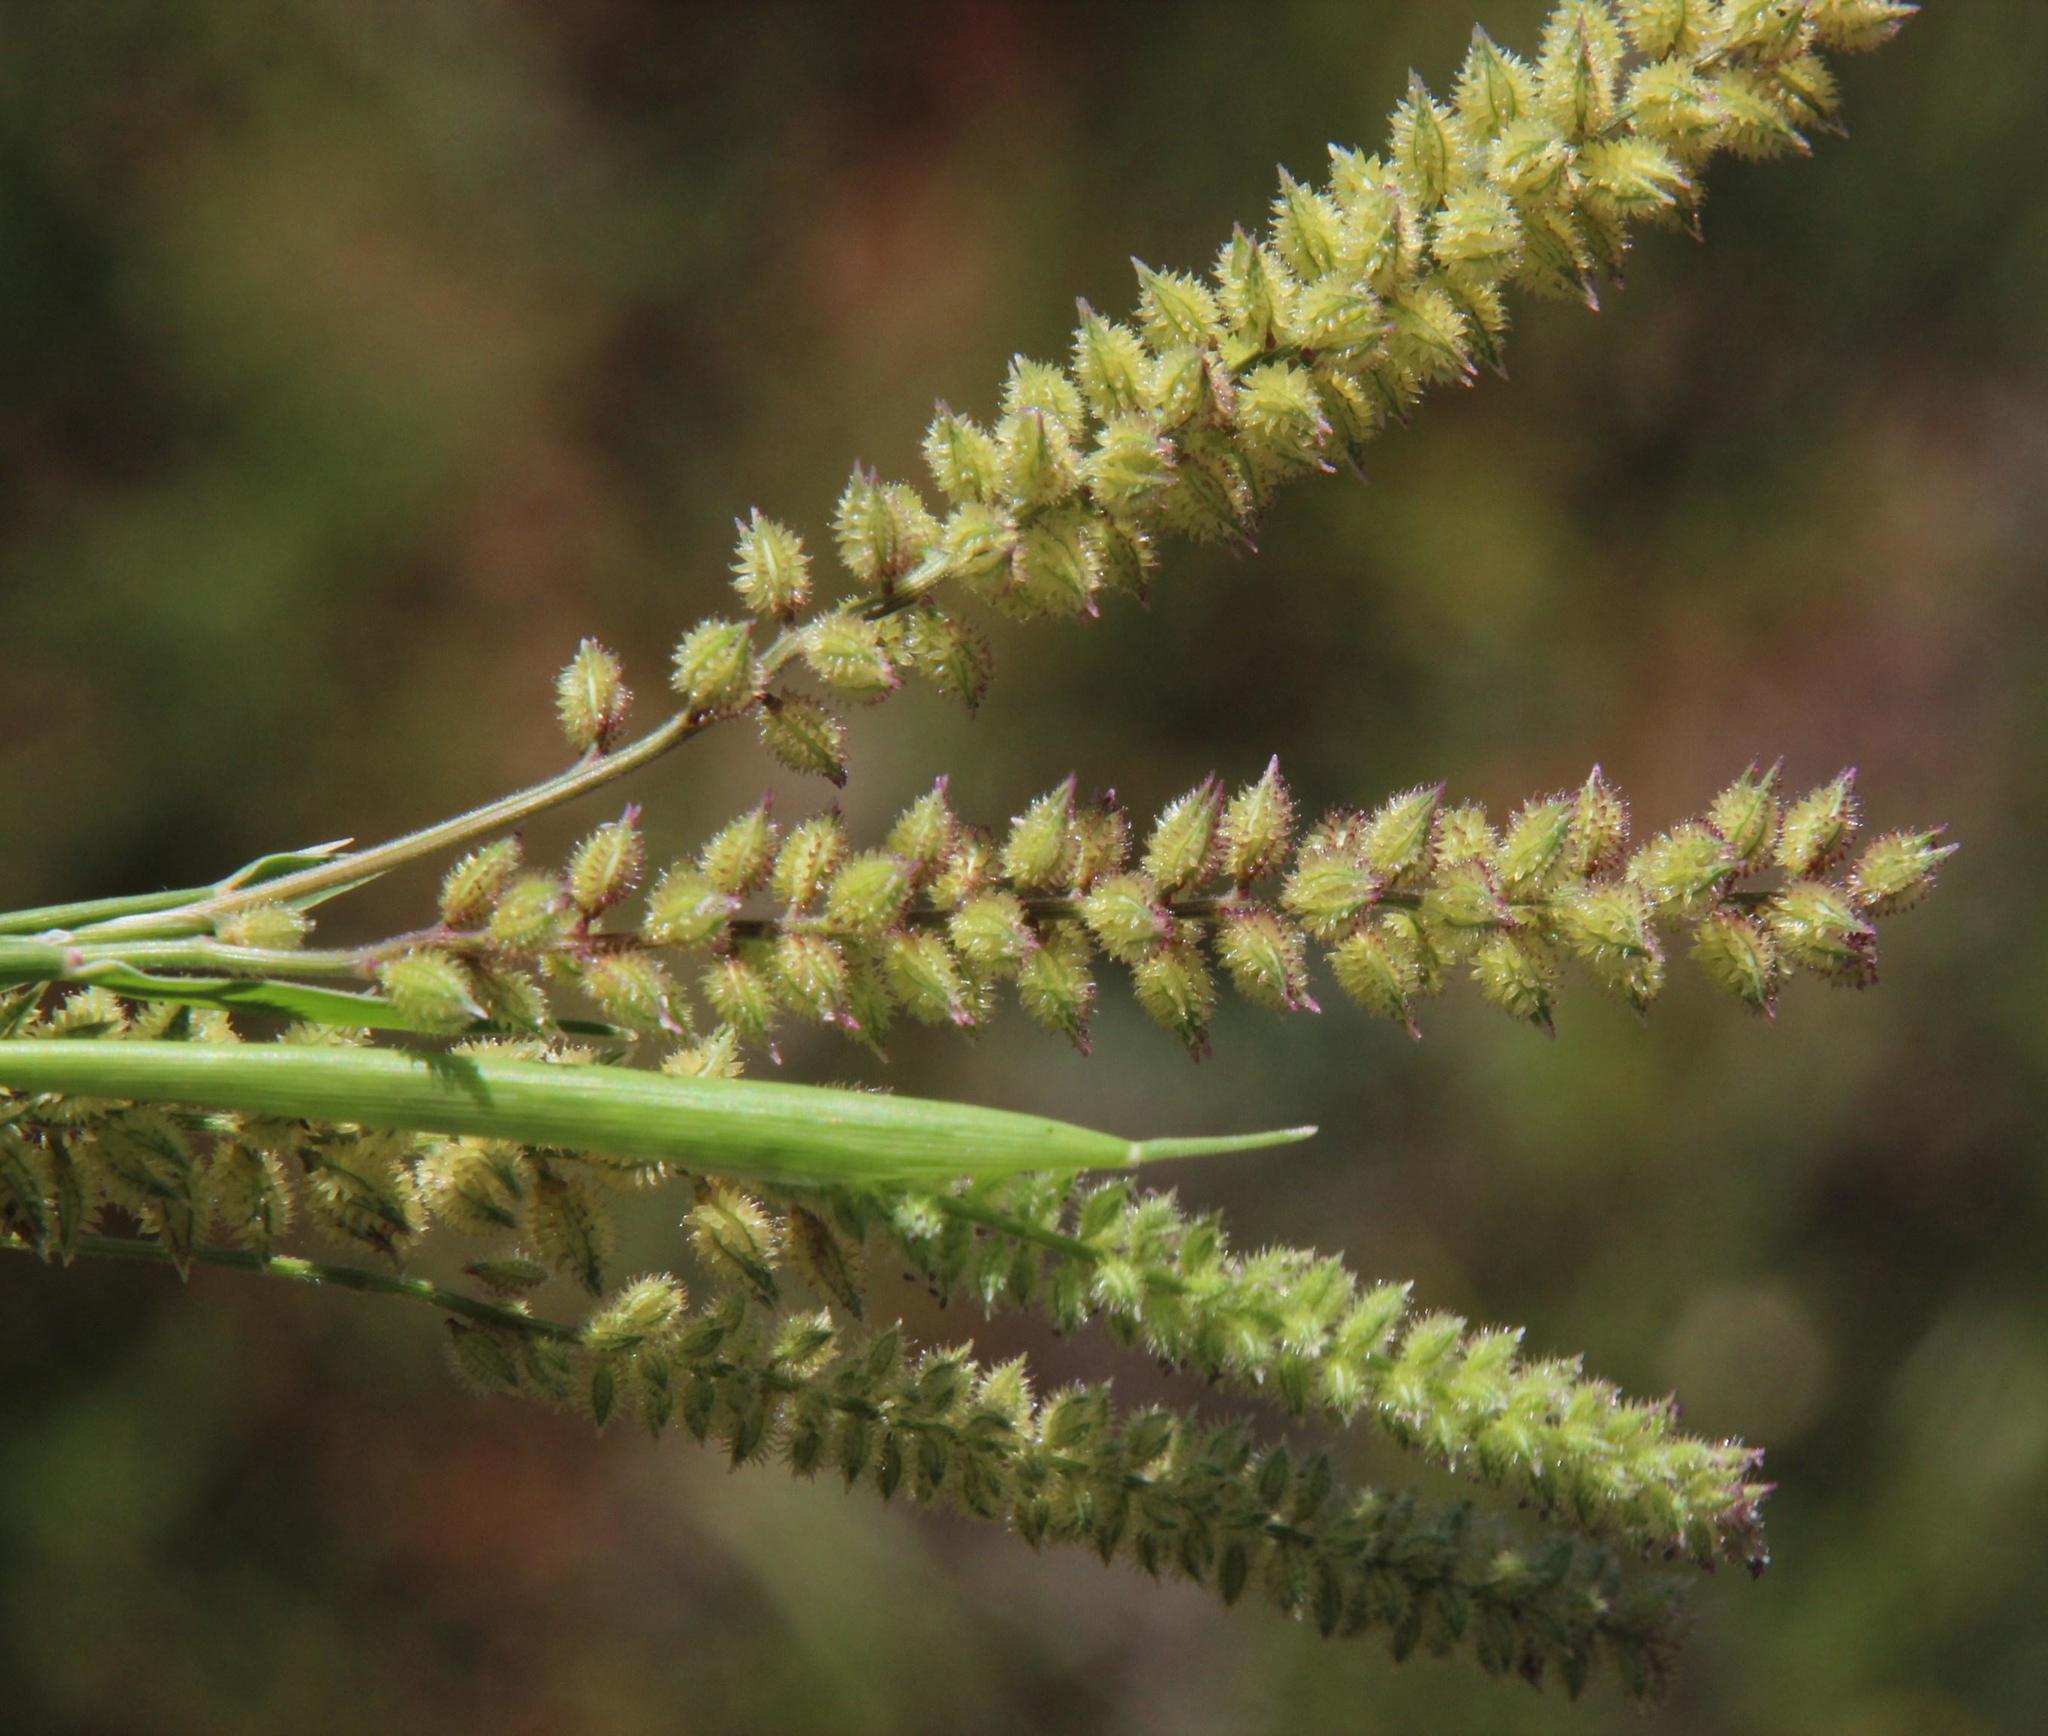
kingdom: Plantae
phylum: Tracheophyta
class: Liliopsida
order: Poales
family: Poaceae
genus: Tragus
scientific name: Tragus berteronianus
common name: African bur-grass
